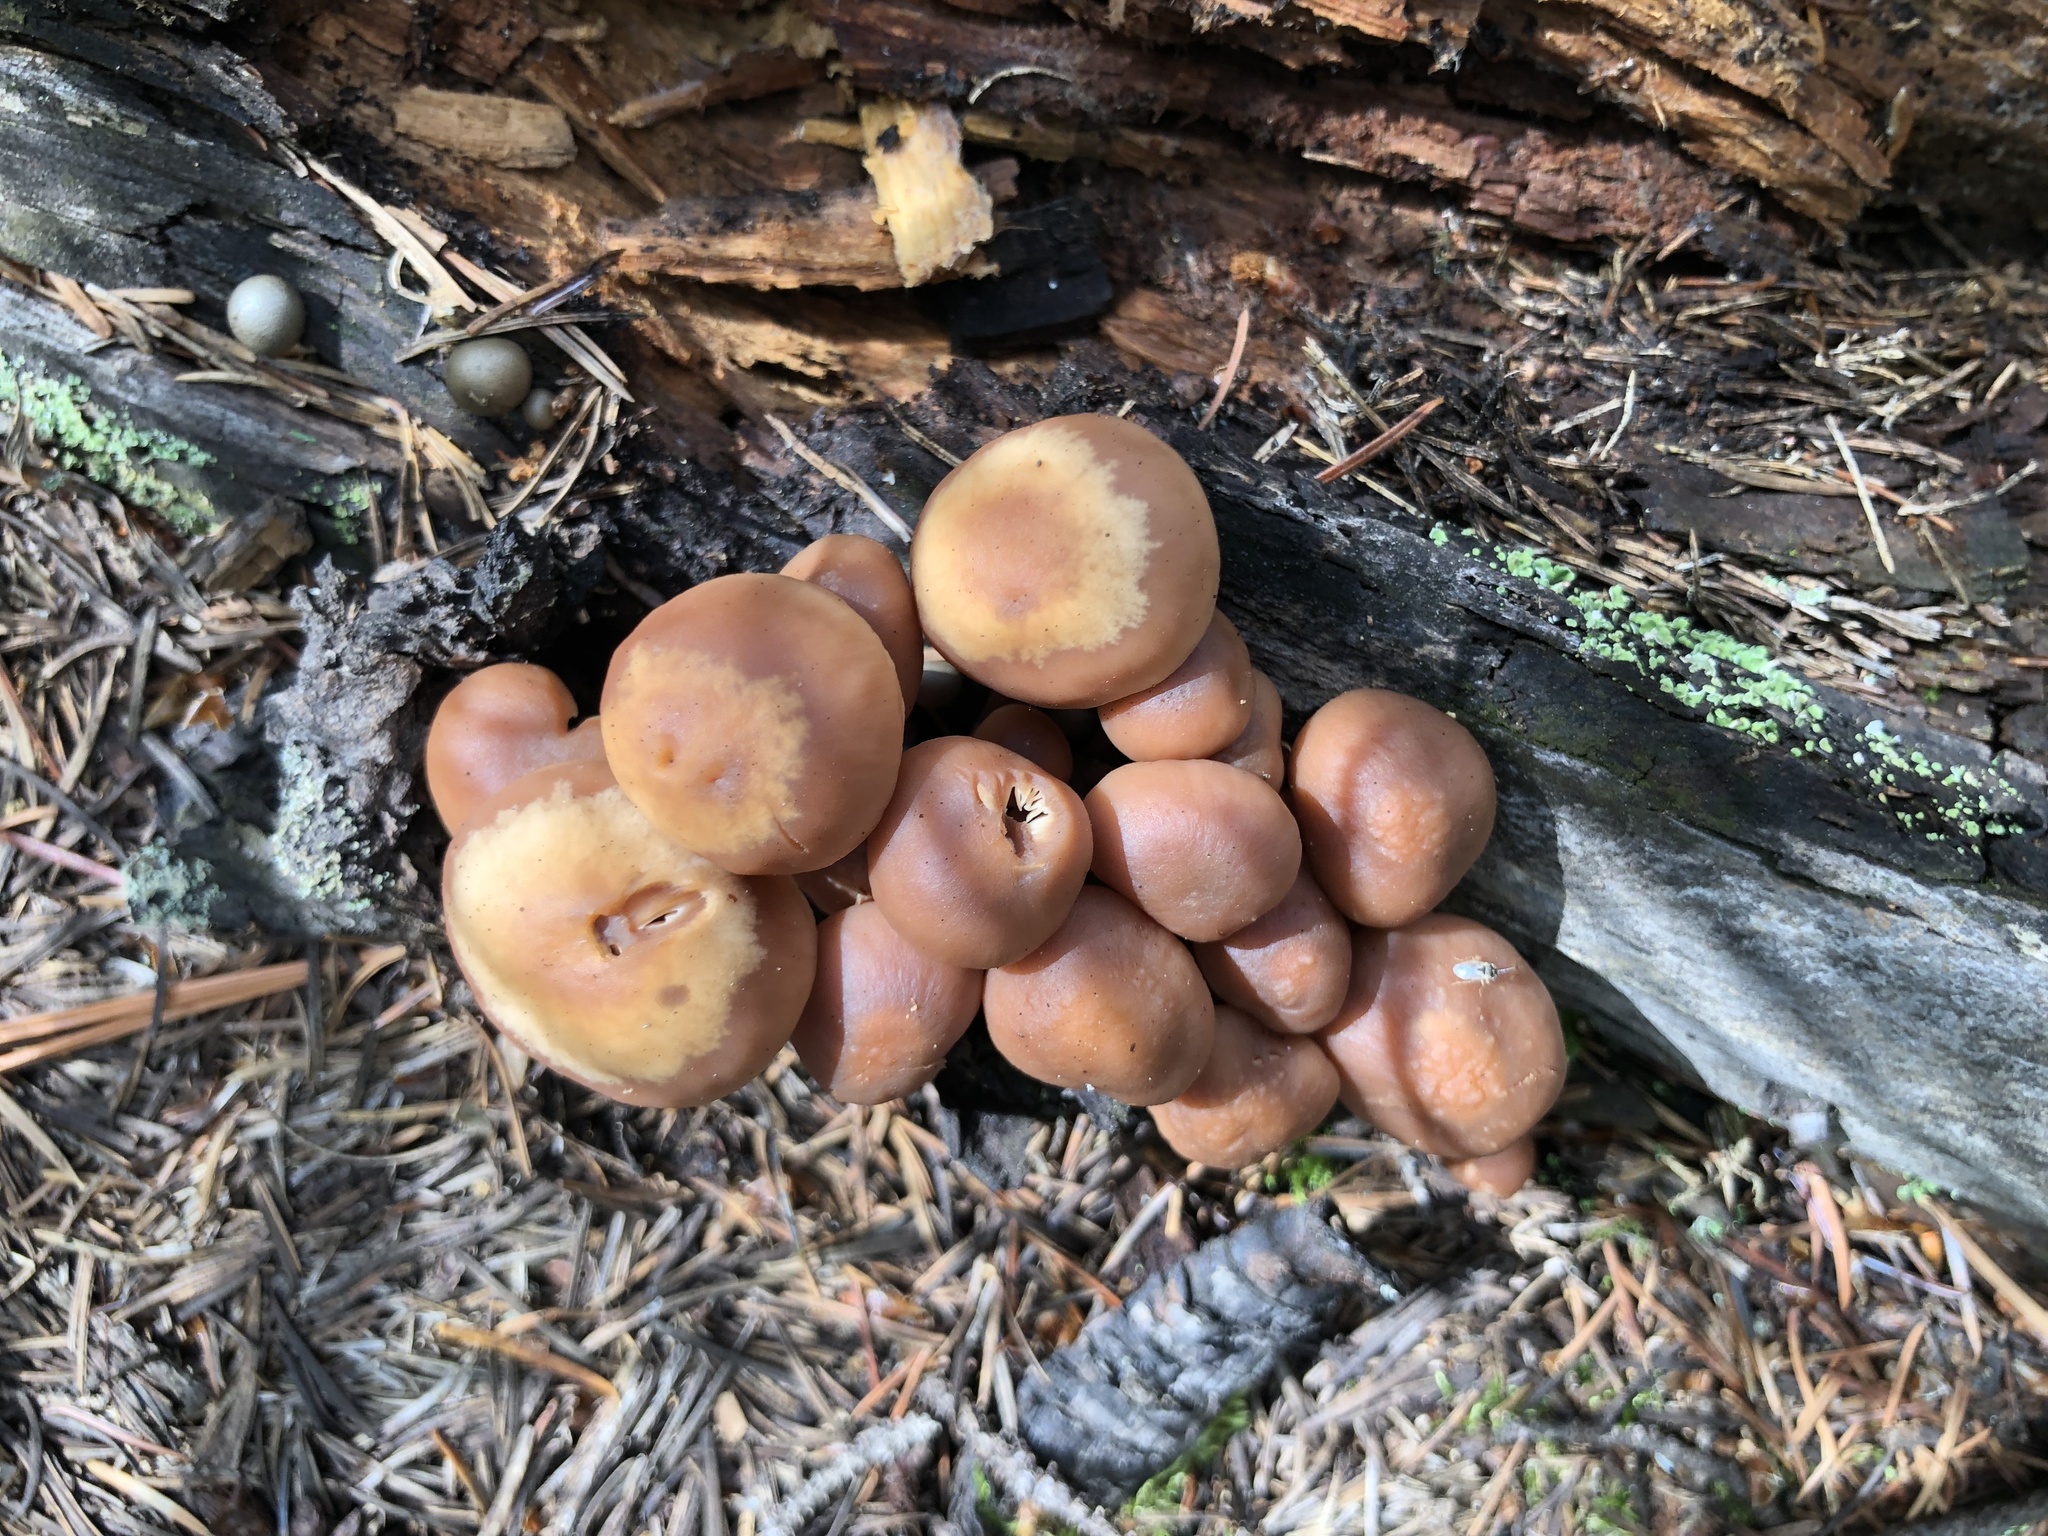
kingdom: Fungi
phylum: Basidiomycota
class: Agaricomycetes
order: Agaricales
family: Omphalotaceae
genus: Connopus
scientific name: Connopus acervatus
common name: Cluster cap
